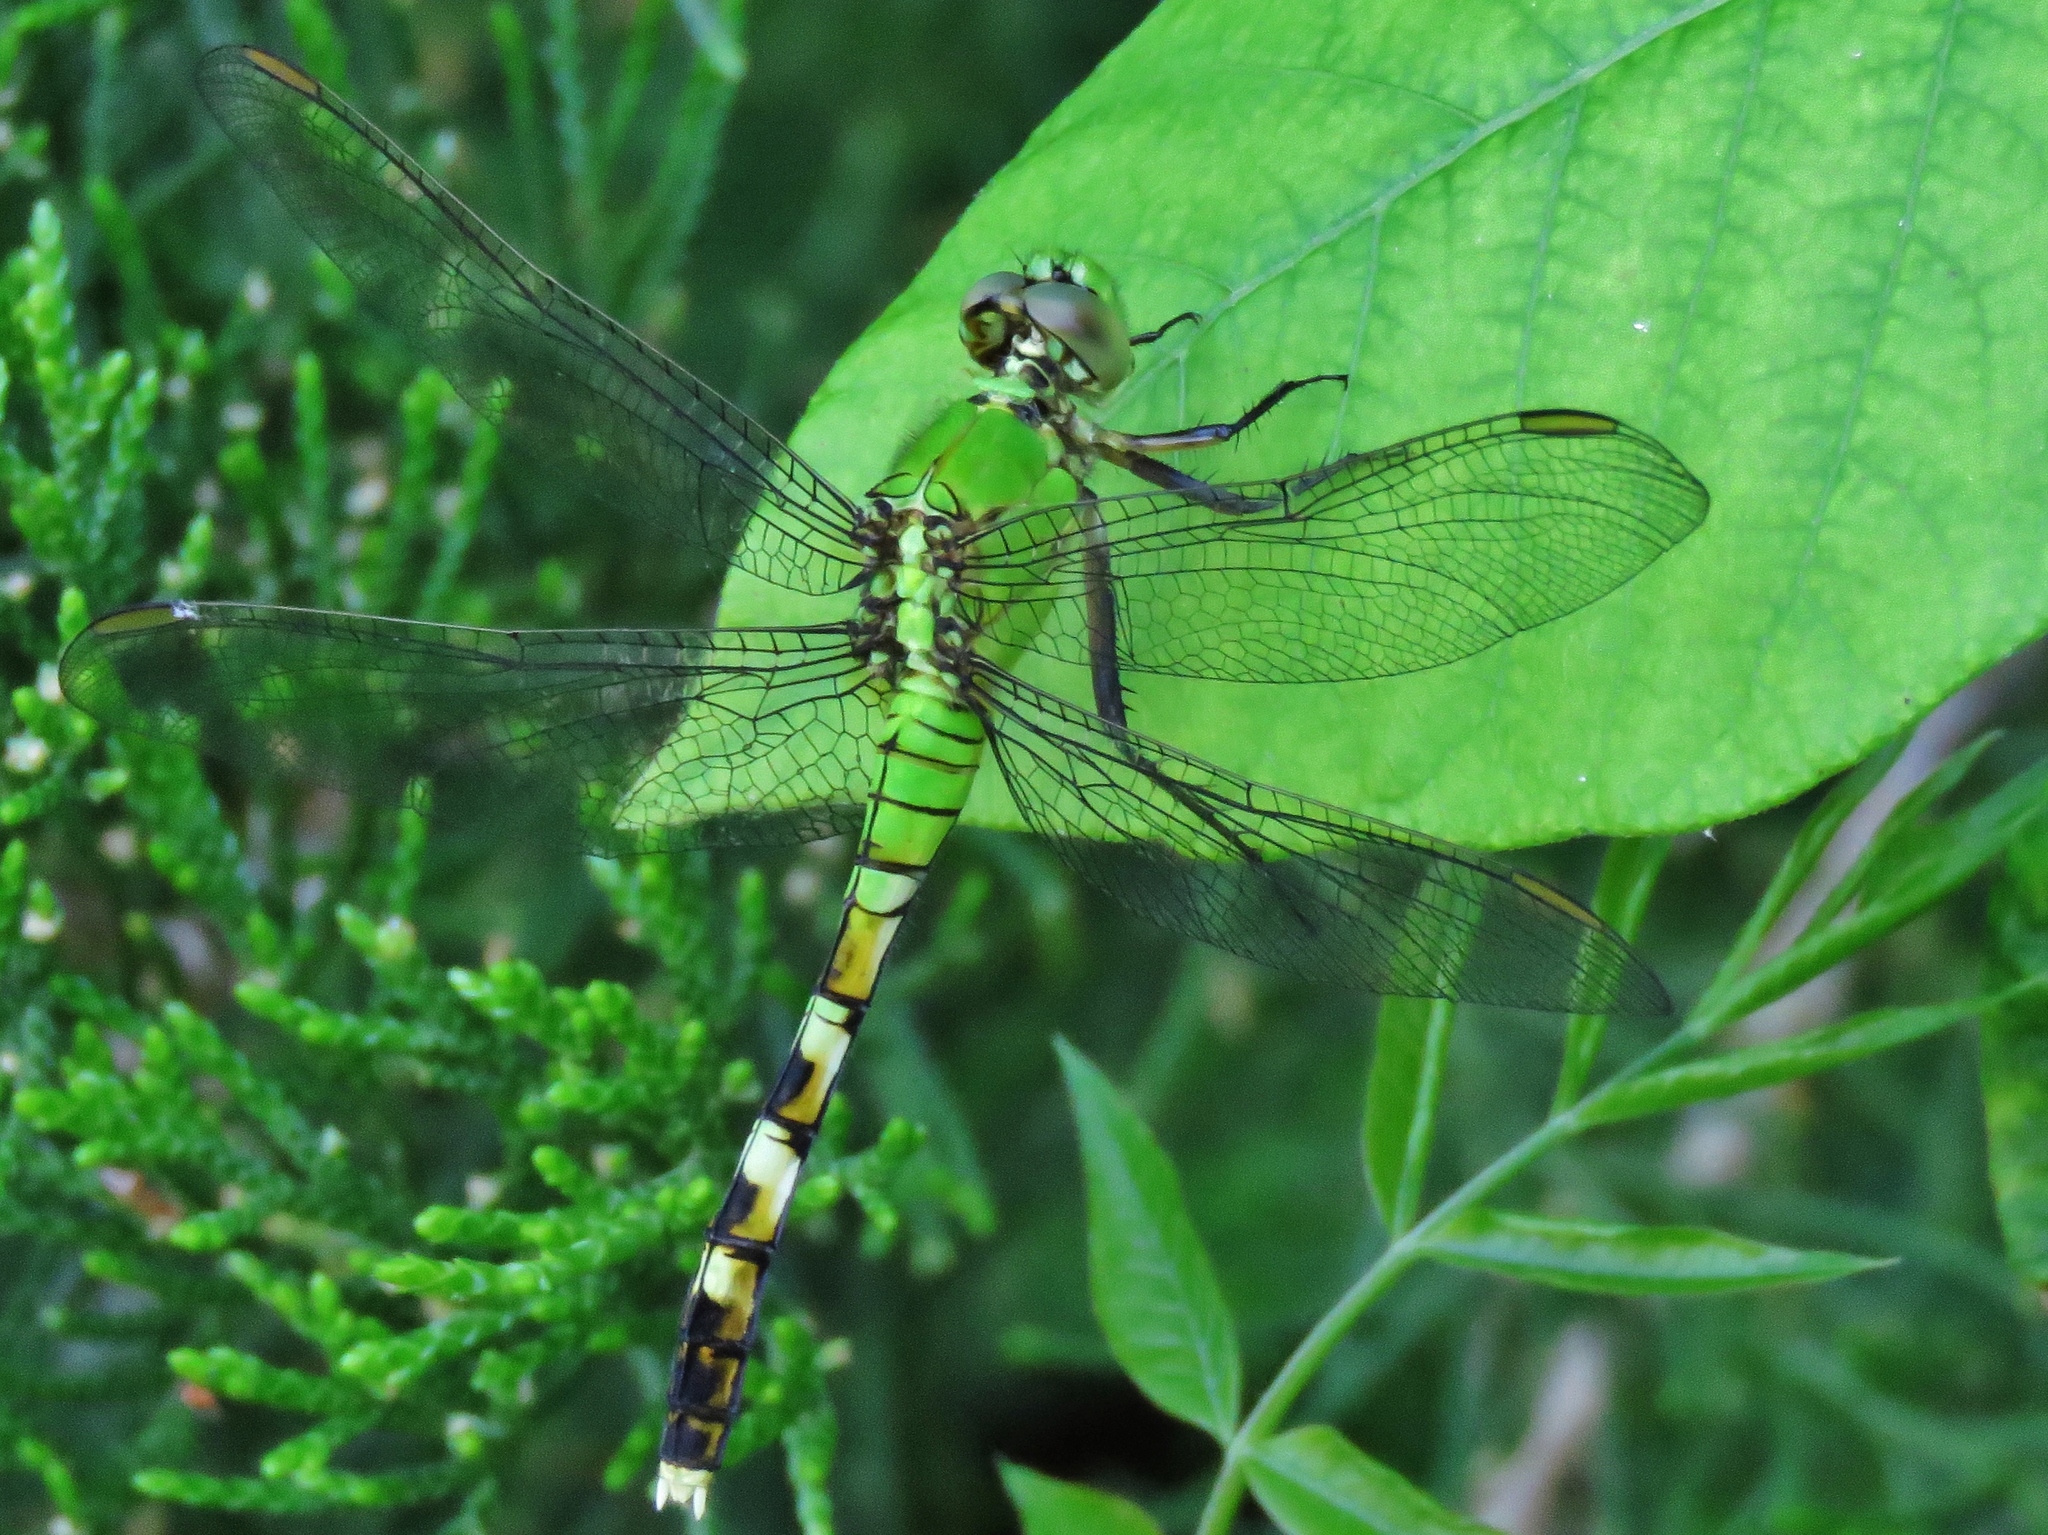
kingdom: Animalia
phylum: Arthropoda
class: Insecta
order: Odonata
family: Libellulidae
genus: Erythemis
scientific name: Erythemis simplicicollis
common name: Eastern pondhawk
